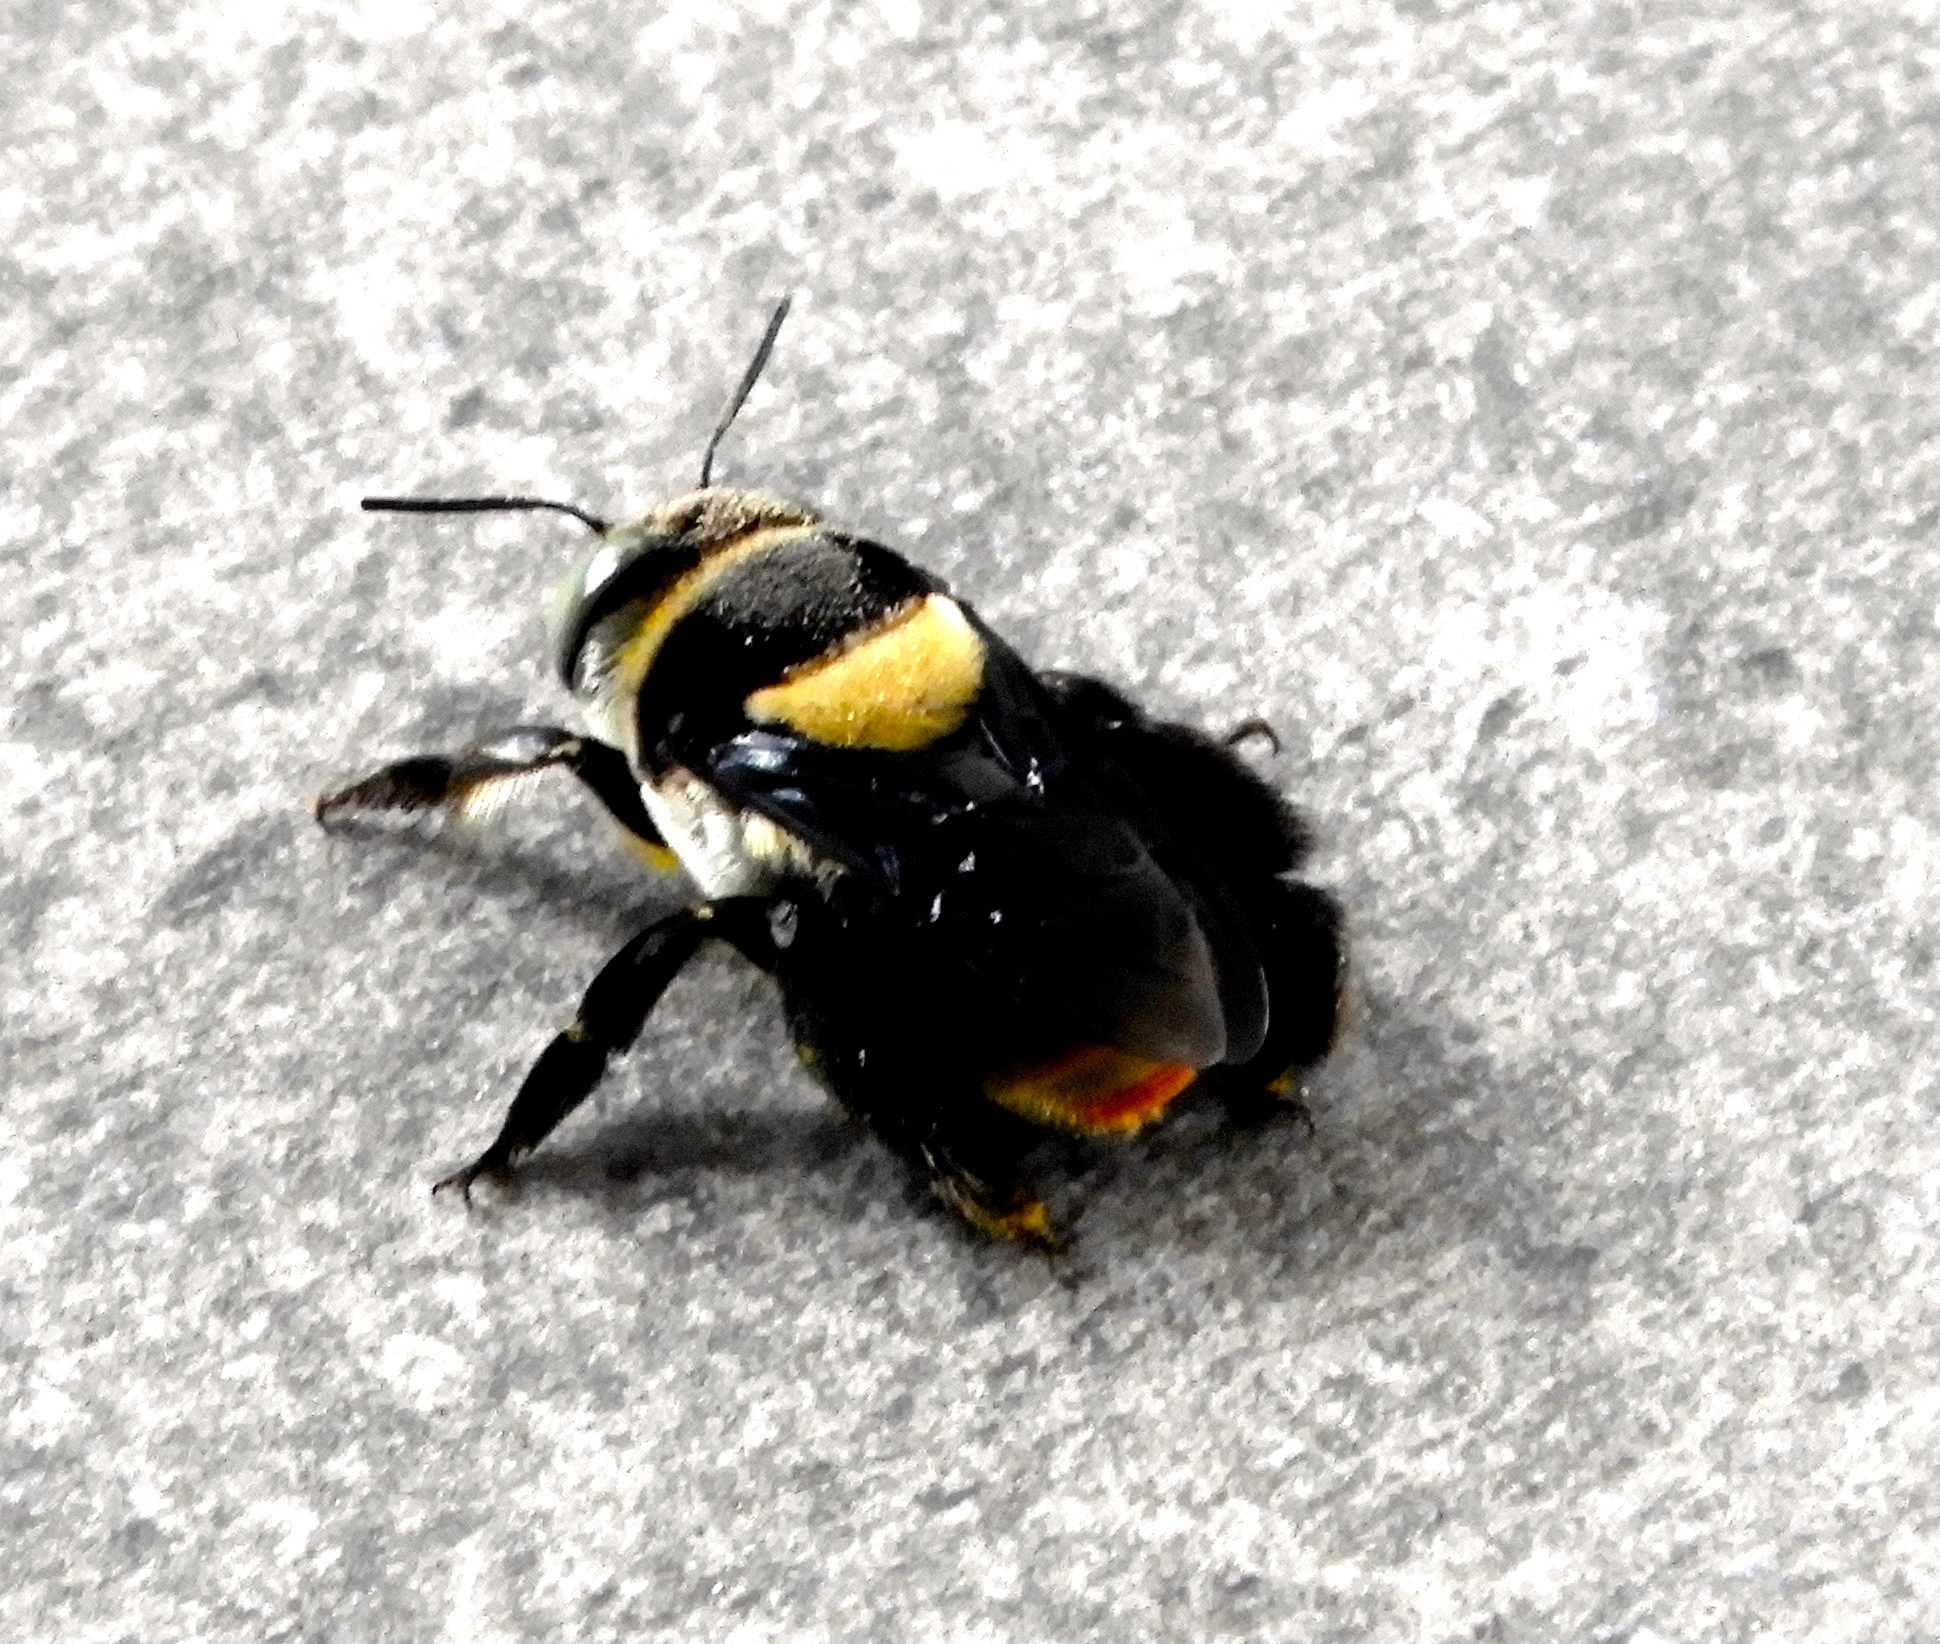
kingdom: Animalia
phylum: Arthropoda
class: Insecta
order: Hymenoptera
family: Apidae
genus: Centris
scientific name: Centris flavofasciata
